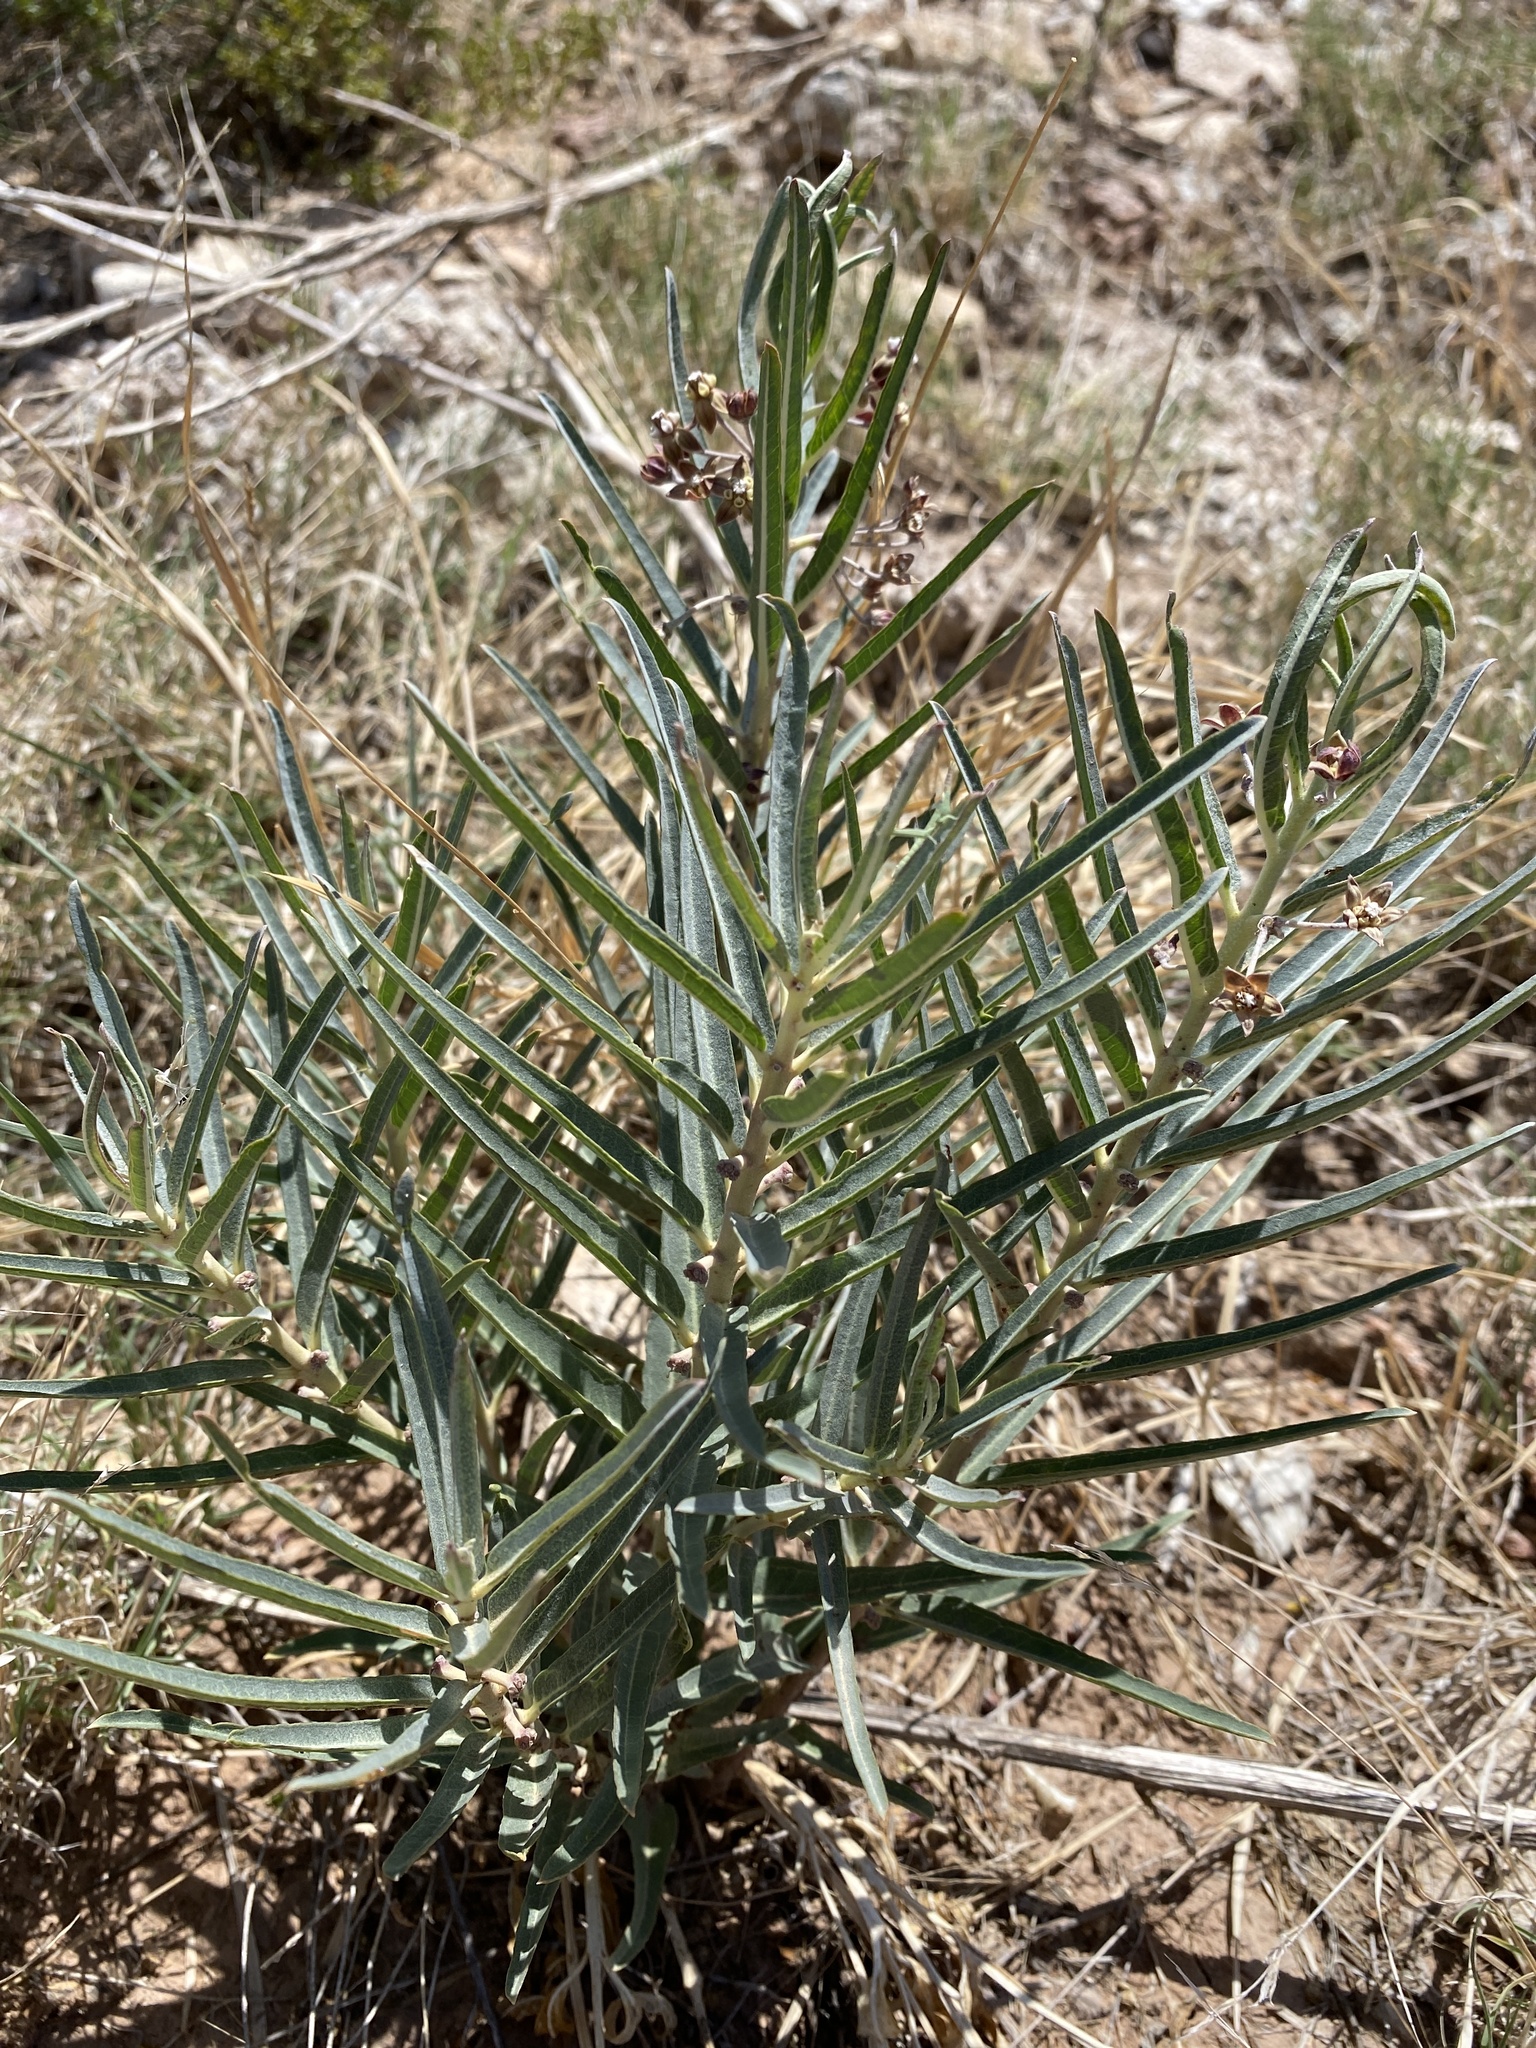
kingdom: Plantae
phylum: Tracheophyta
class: Magnoliopsida
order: Gentianales
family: Apocynaceae
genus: Asclepias
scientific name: Asclepias brachystephana
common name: Shortcrown milkweed
